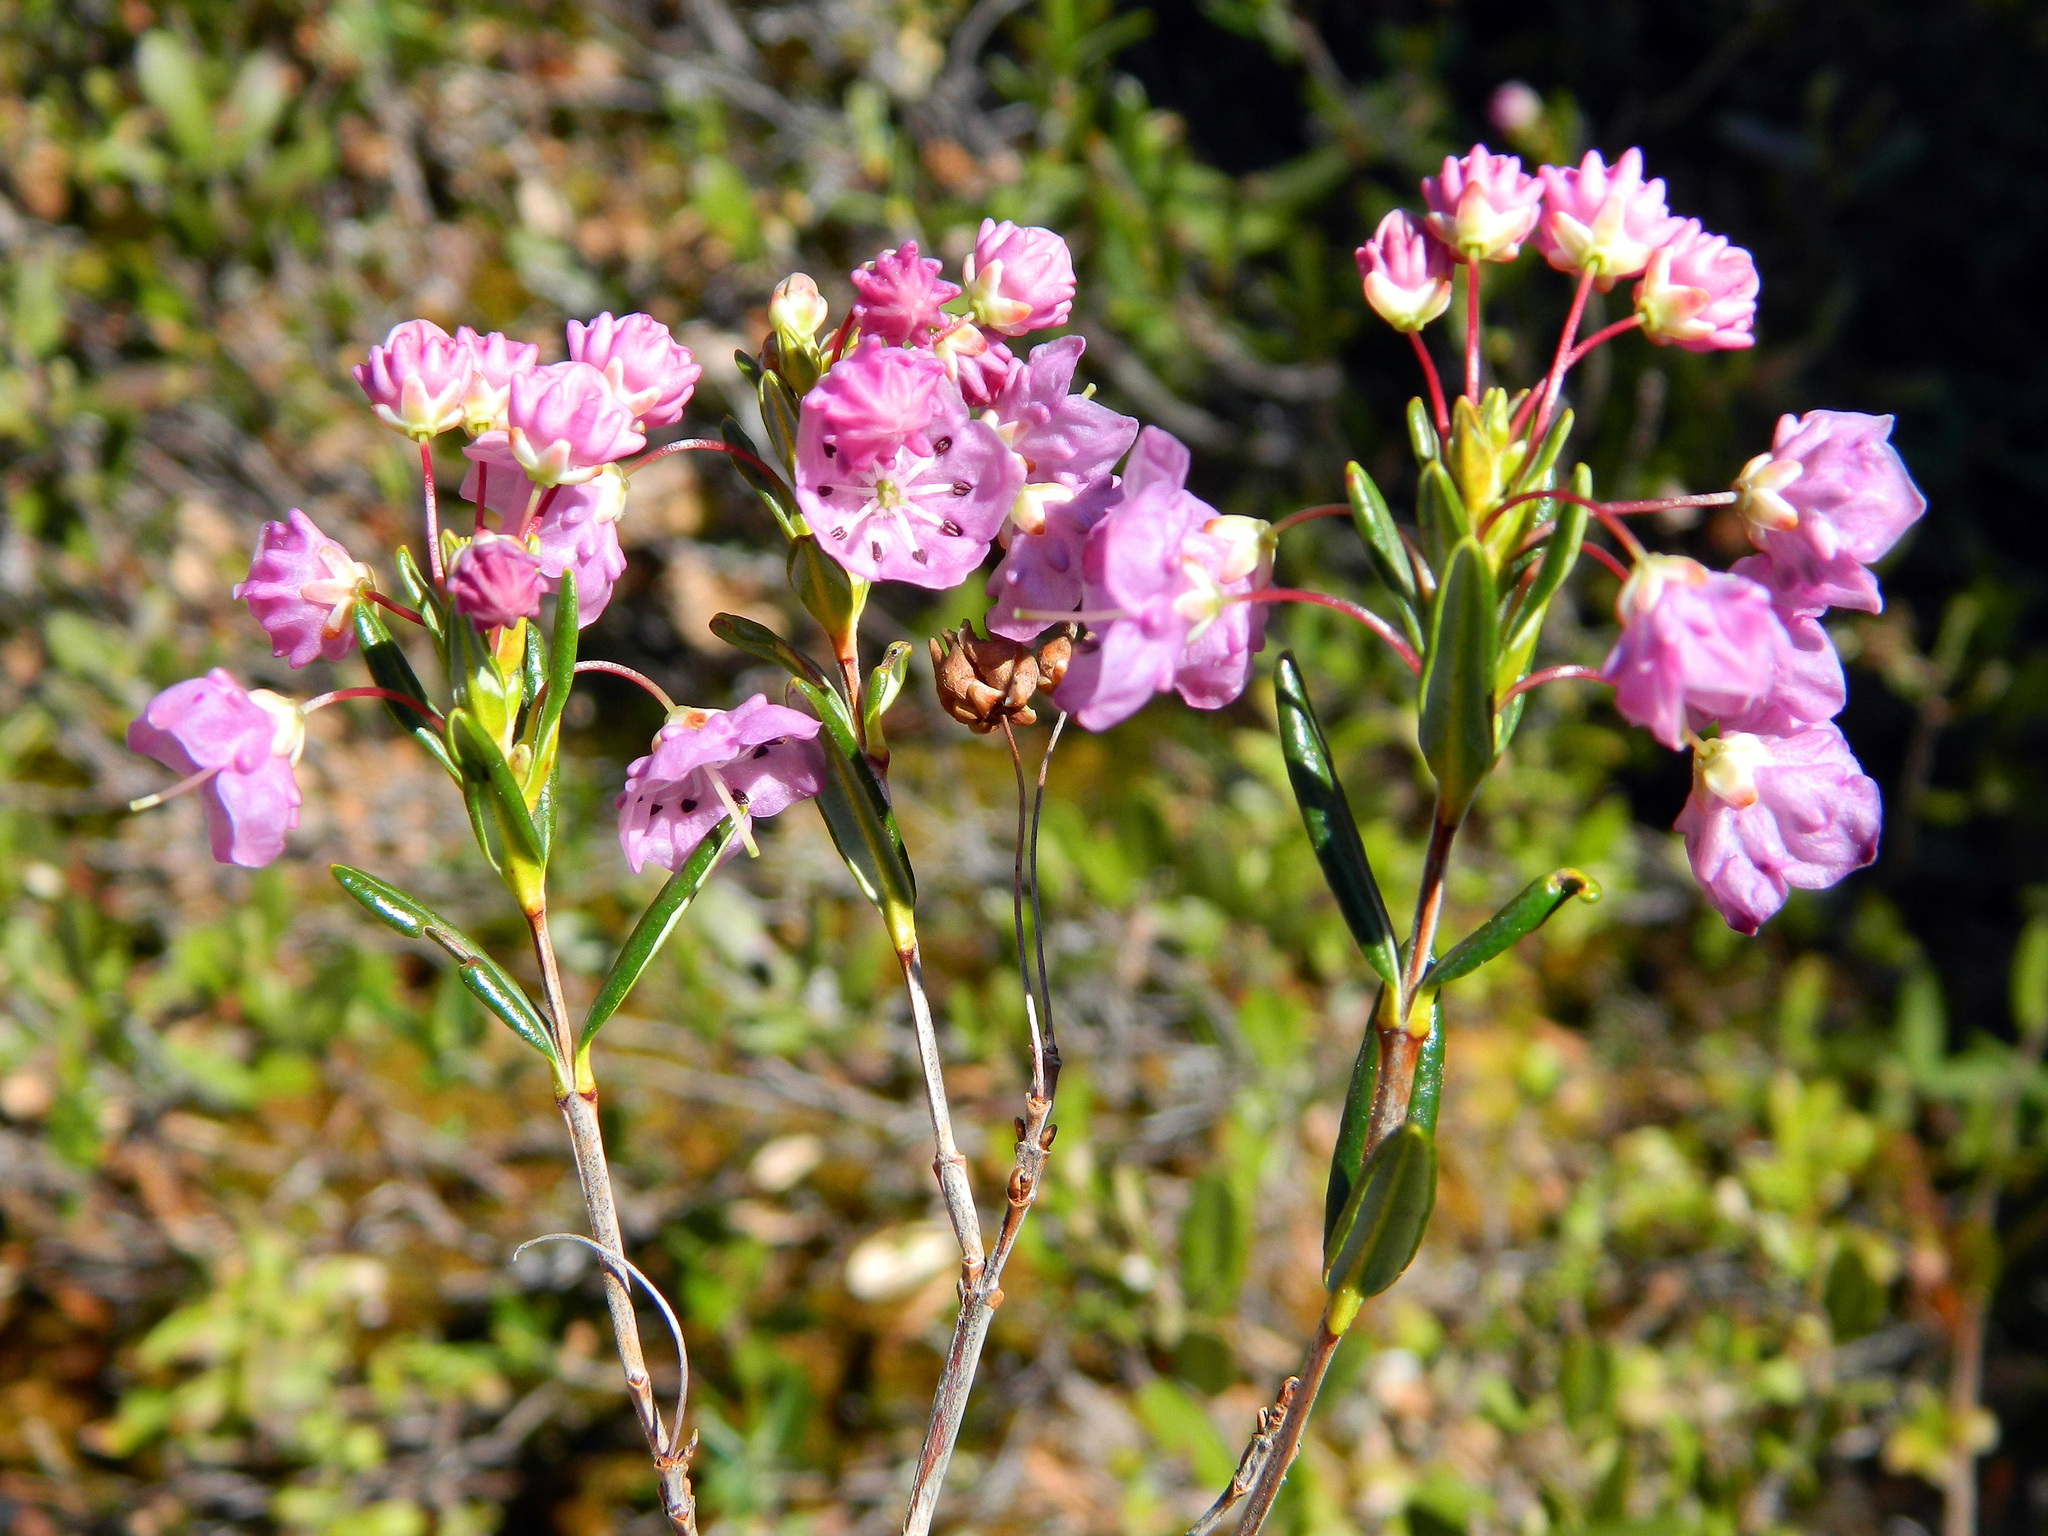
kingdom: Plantae
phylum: Tracheophyta
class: Magnoliopsida
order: Ericales
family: Ericaceae
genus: Kalmia
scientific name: Kalmia polifolia
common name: Bog-laurel
